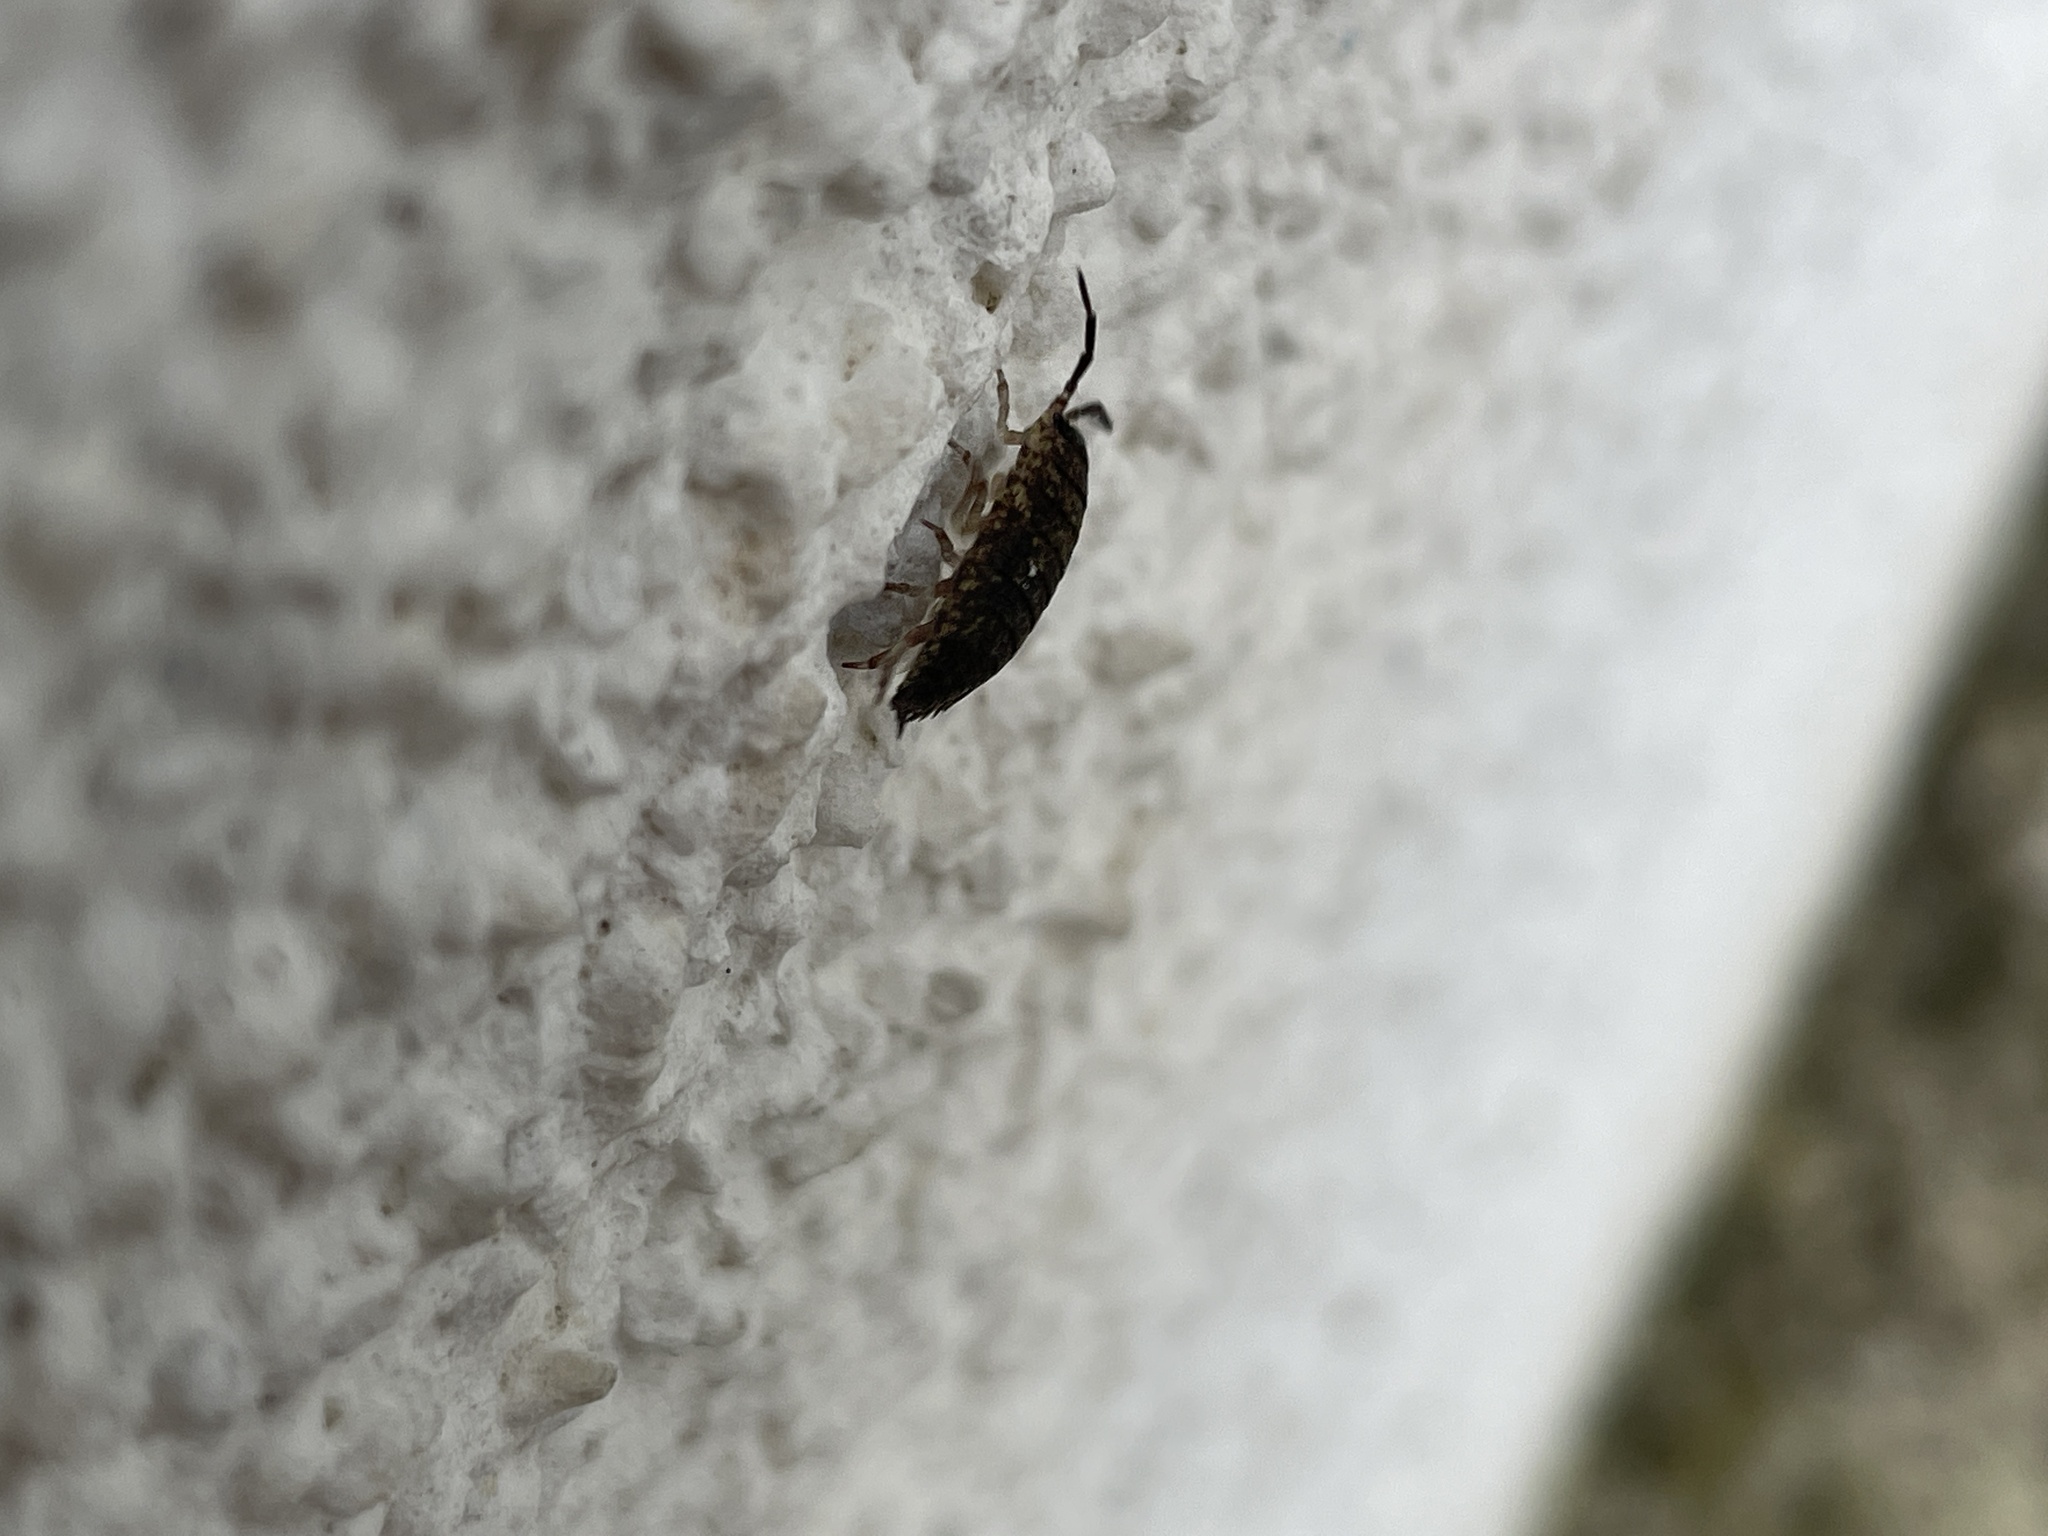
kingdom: Animalia
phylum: Arthropoda
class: Malacostraca
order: Isopoda
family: Porcellionidae
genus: Porcellio
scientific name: Porcellio scaber
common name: Common rough woodlouse
